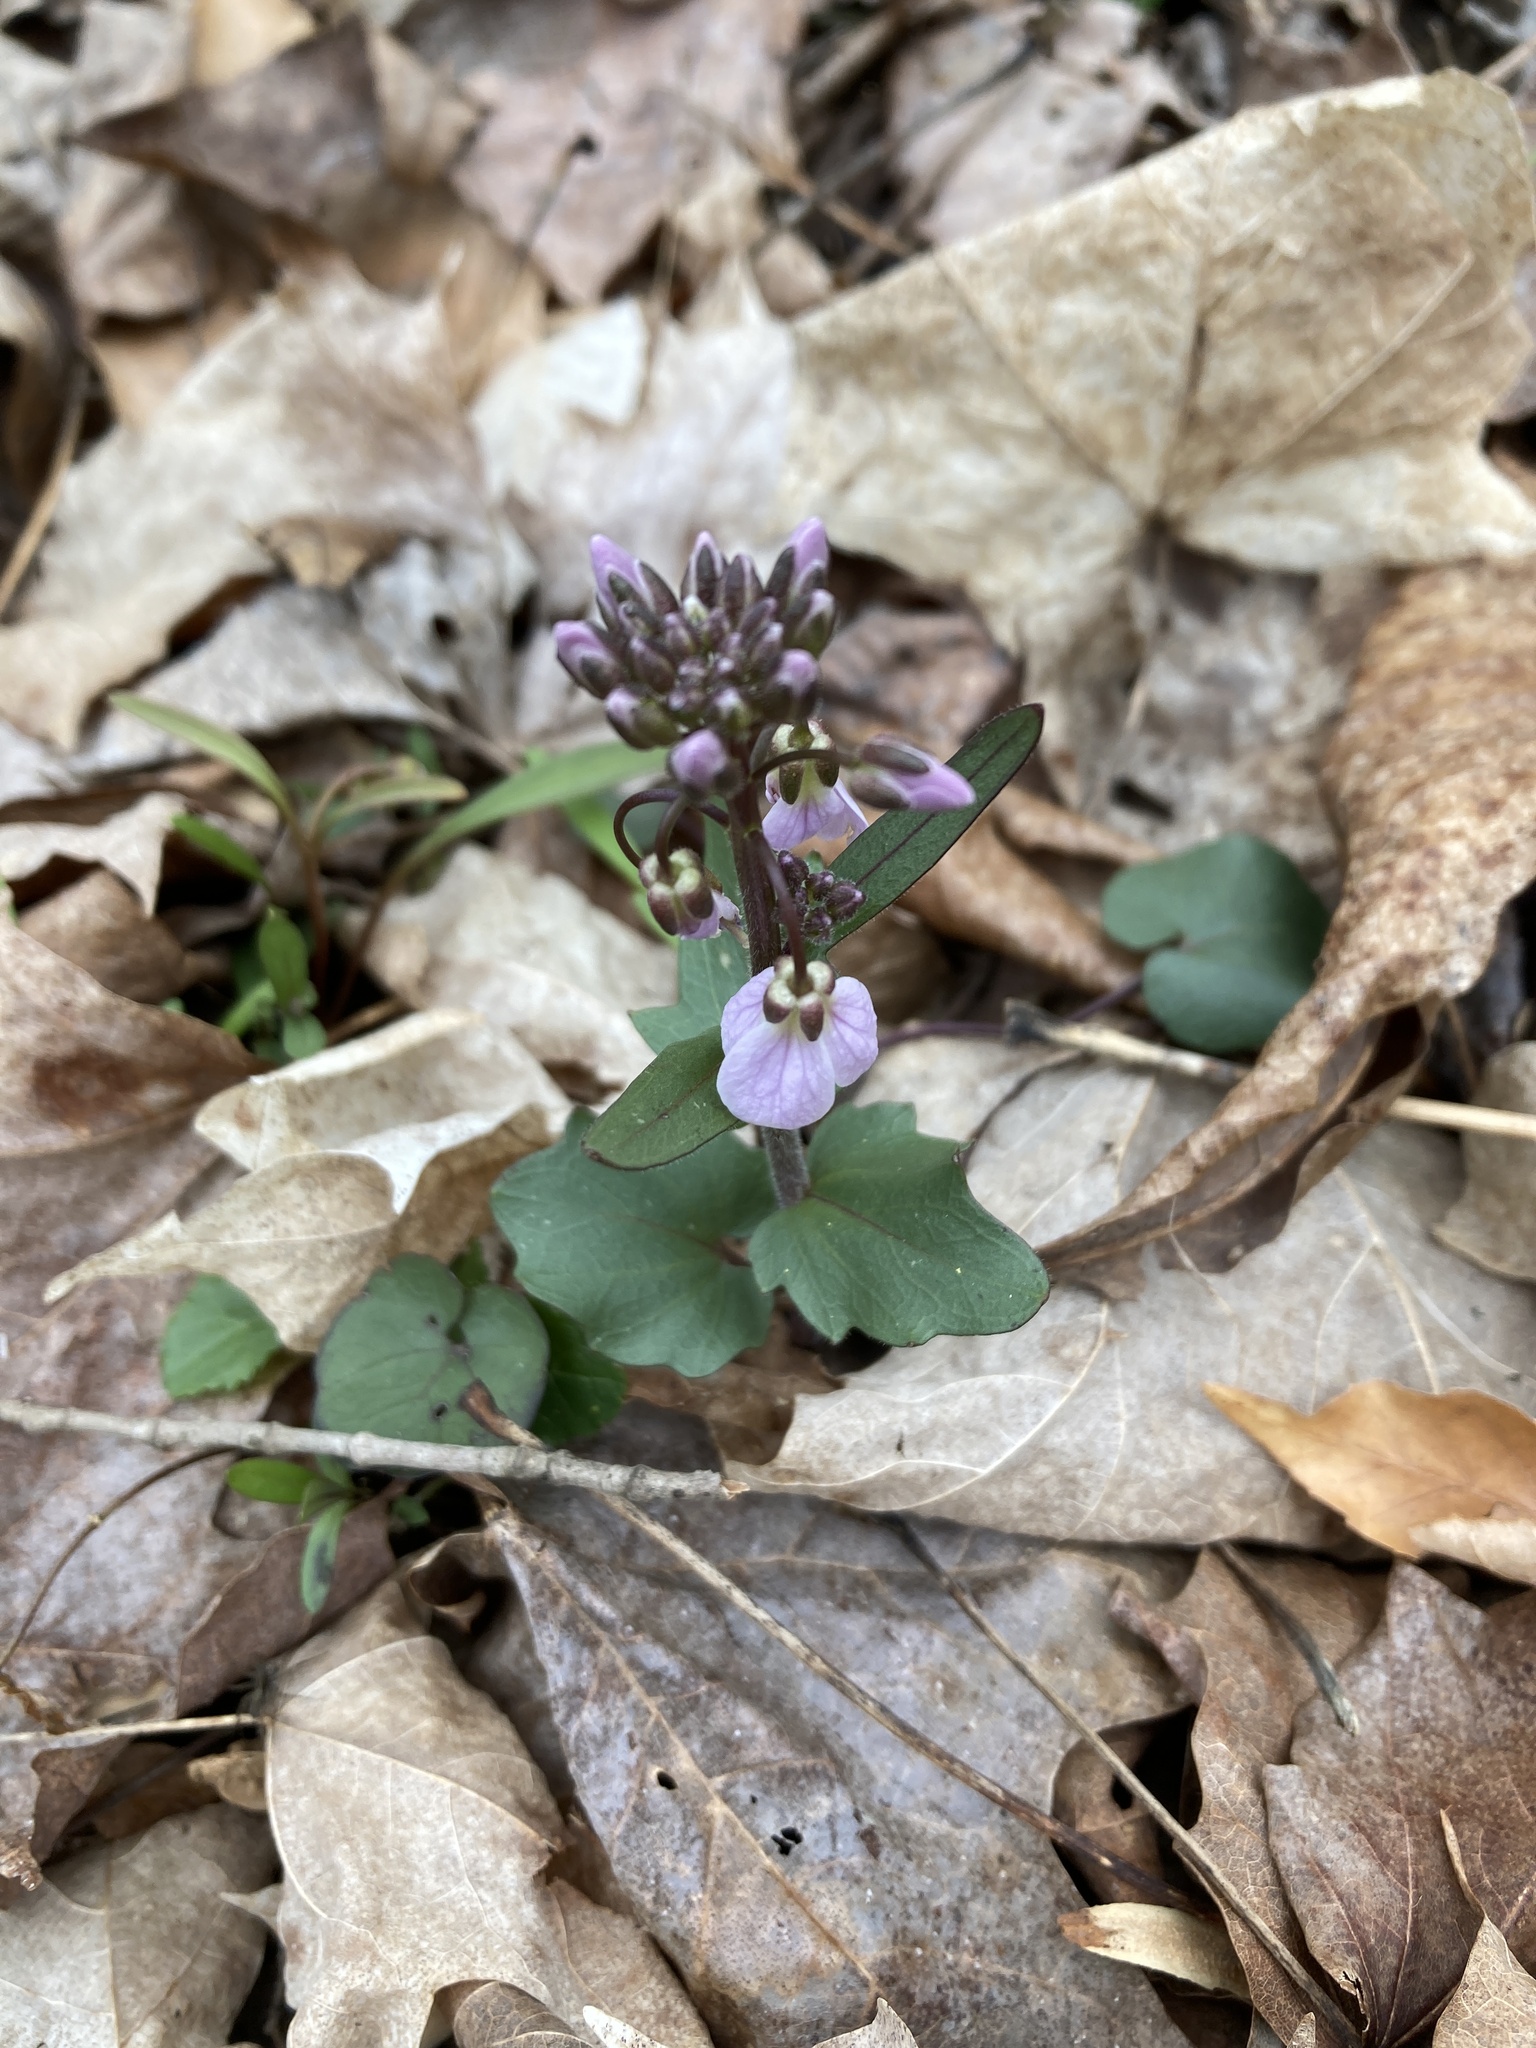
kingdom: Plantae
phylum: Tracheophyta
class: Magnoliopsida
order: Brassicales
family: Brassicaceae
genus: Cardamine
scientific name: Cardamine douglassii
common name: Purple cress
